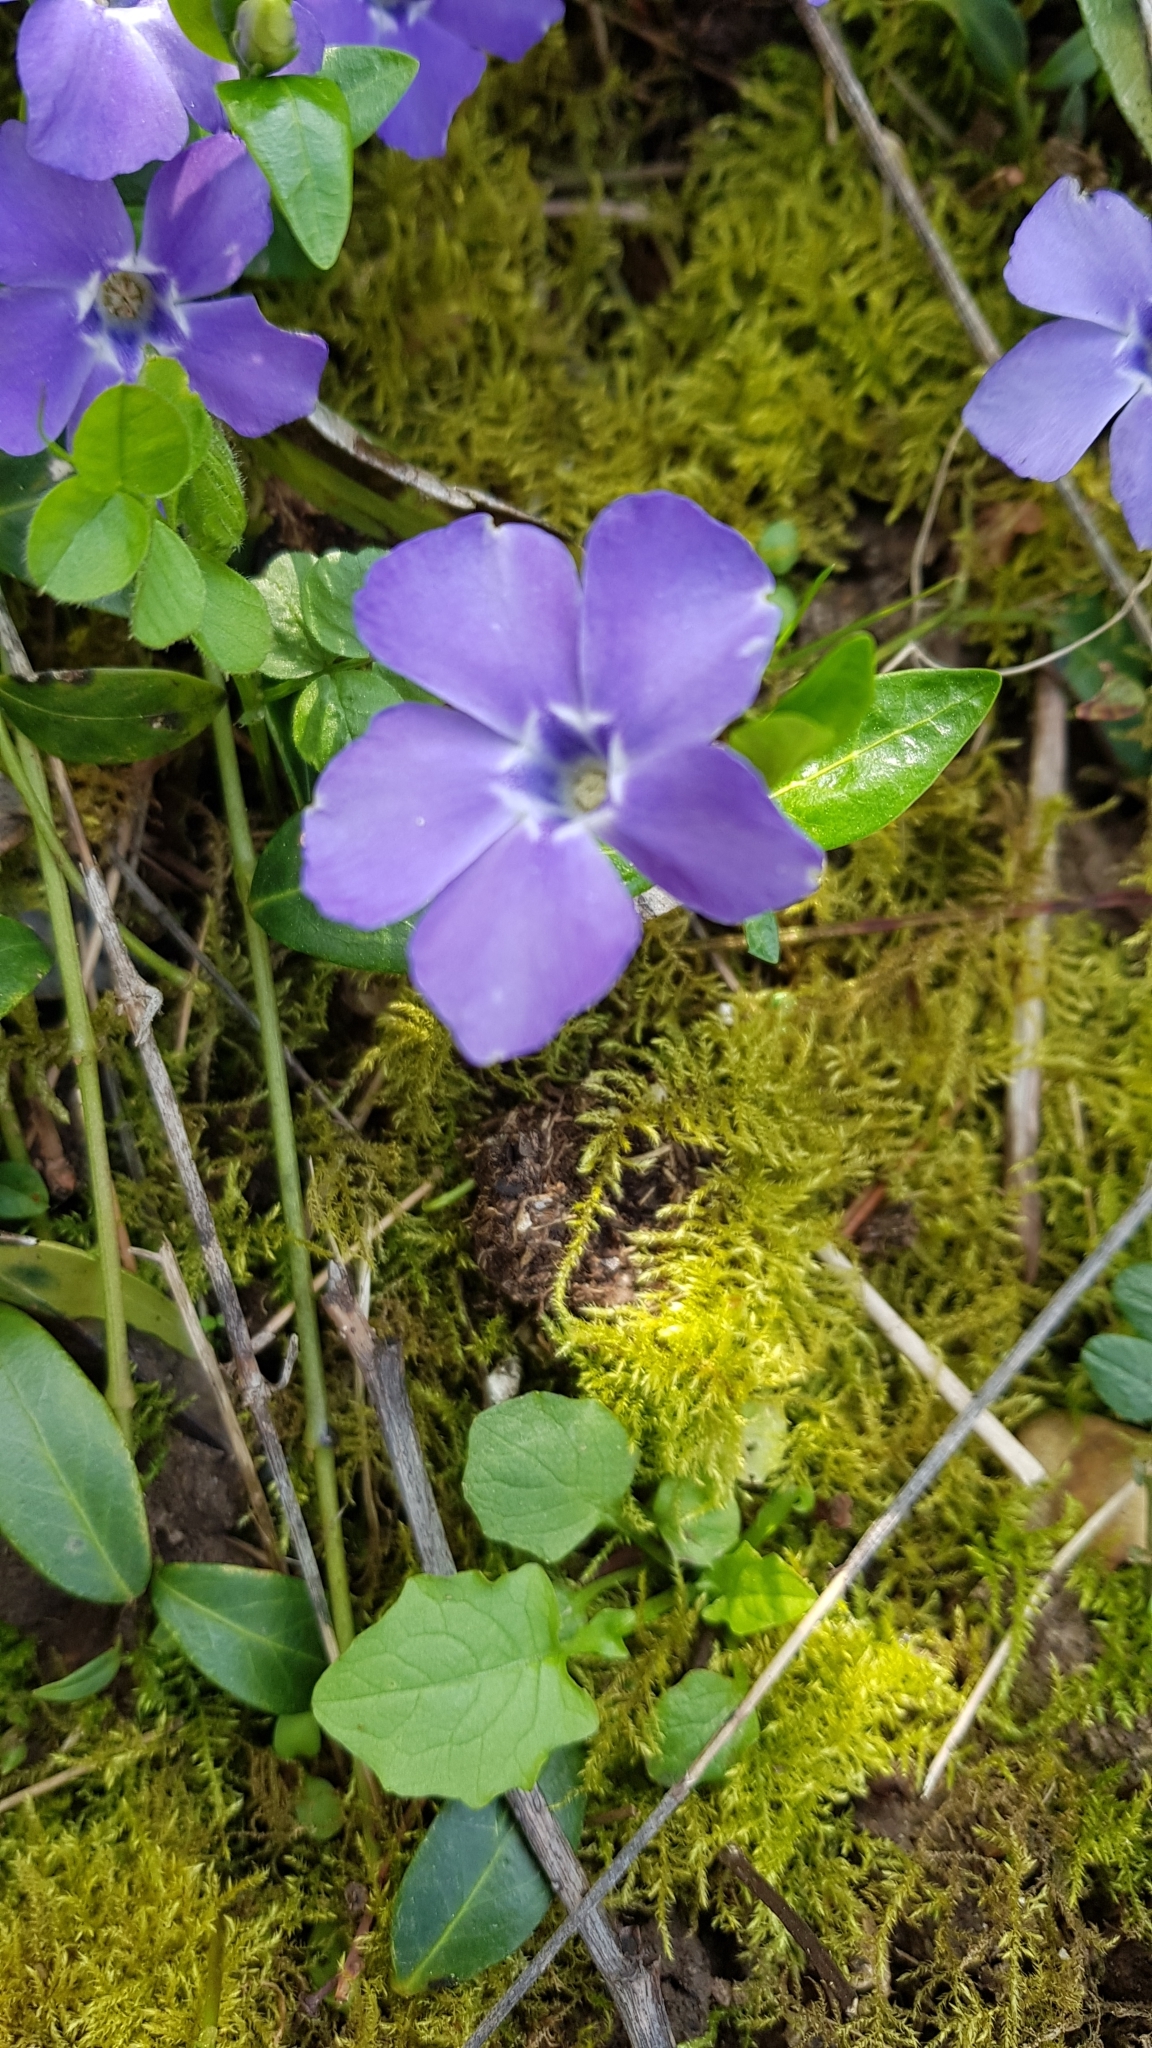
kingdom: Plantae
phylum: Tracheophyta
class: Magnoliopsida
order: Gentianales
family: Apocynaceae
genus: Vinca
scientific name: Vinca minor
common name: Lesser periwinkle
